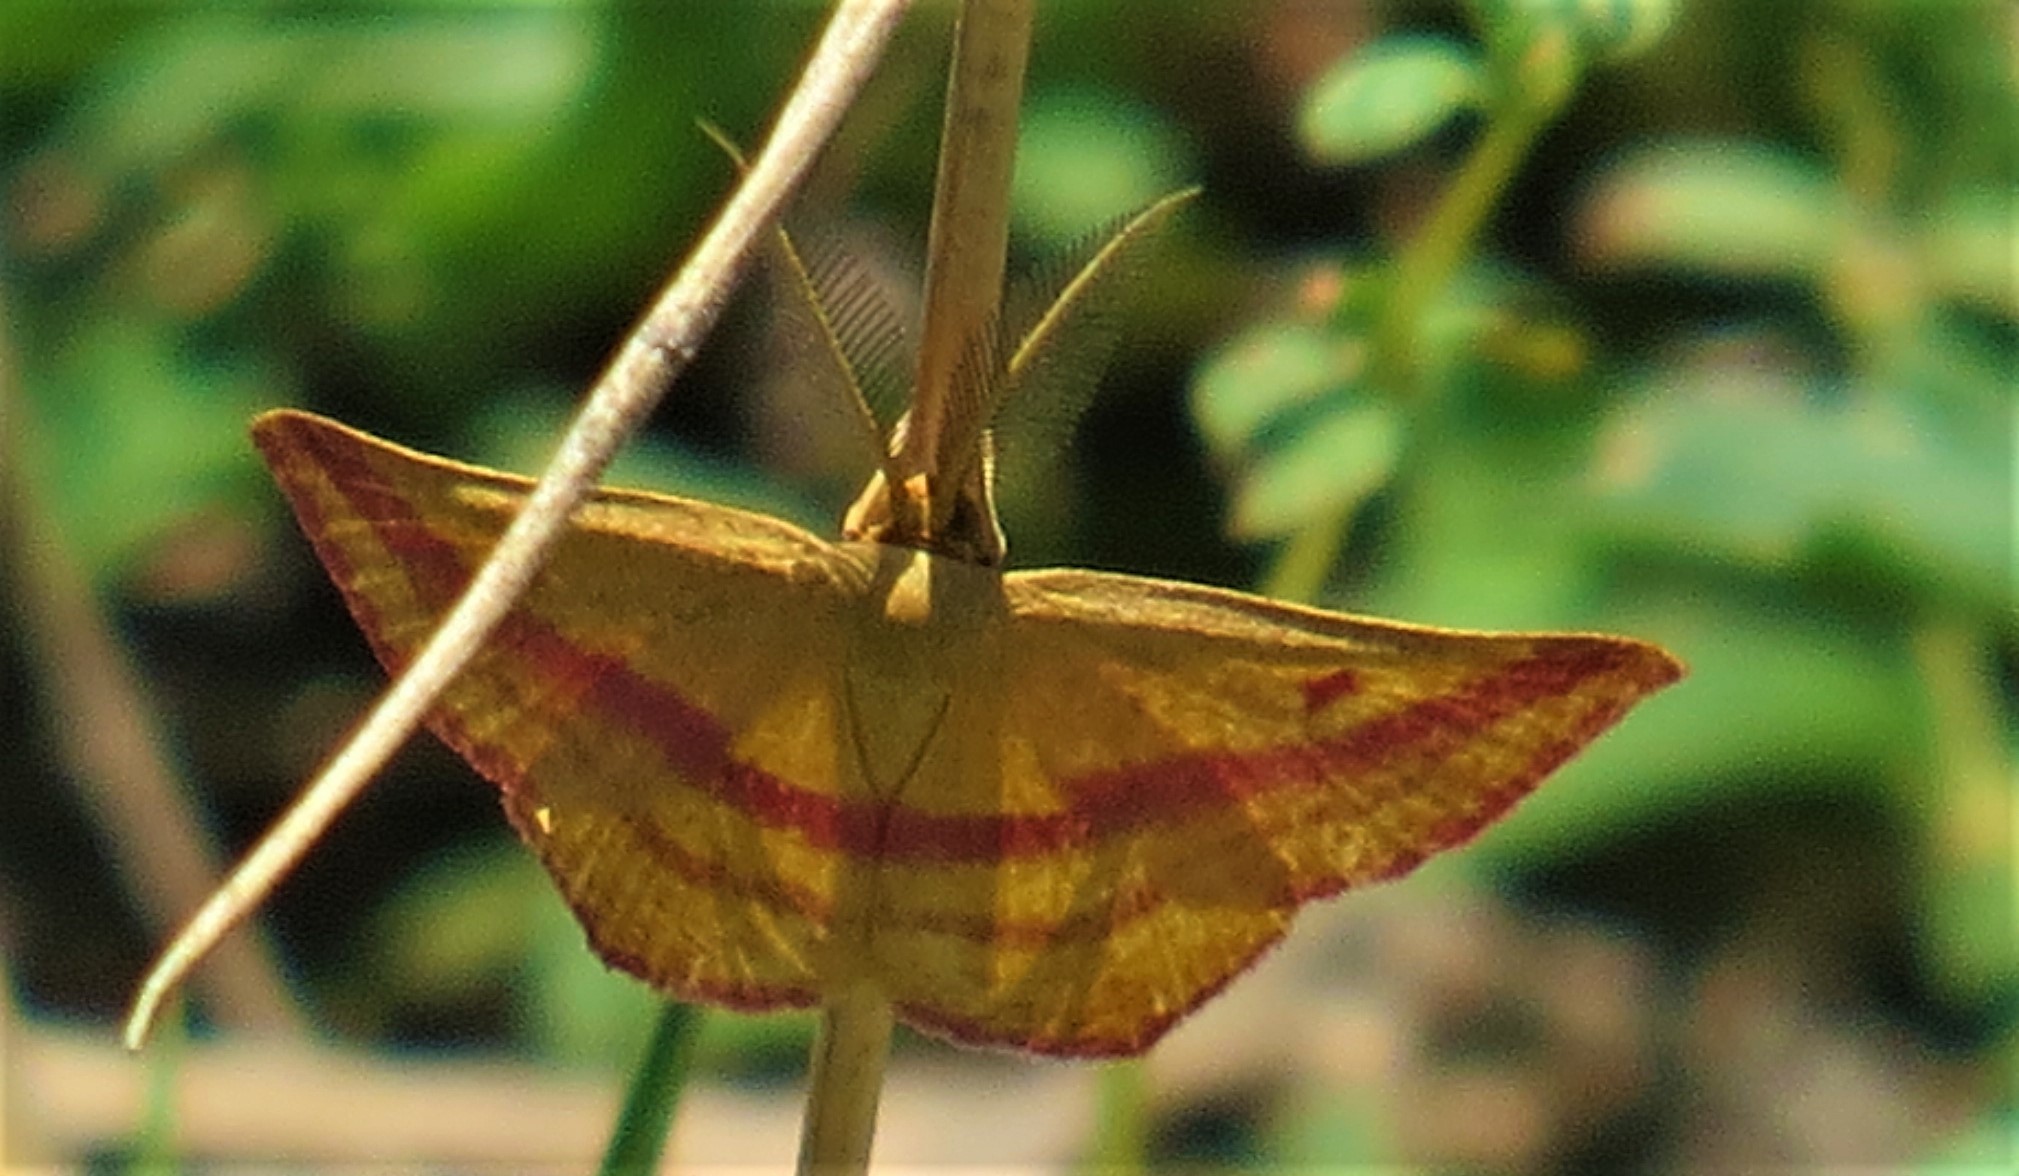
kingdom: Animalia
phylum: Arthropoda
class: Insecta
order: Lepidoptera
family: Geometridae
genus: Haematopis
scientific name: Haematopis grataria
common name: Chickweed geometer
